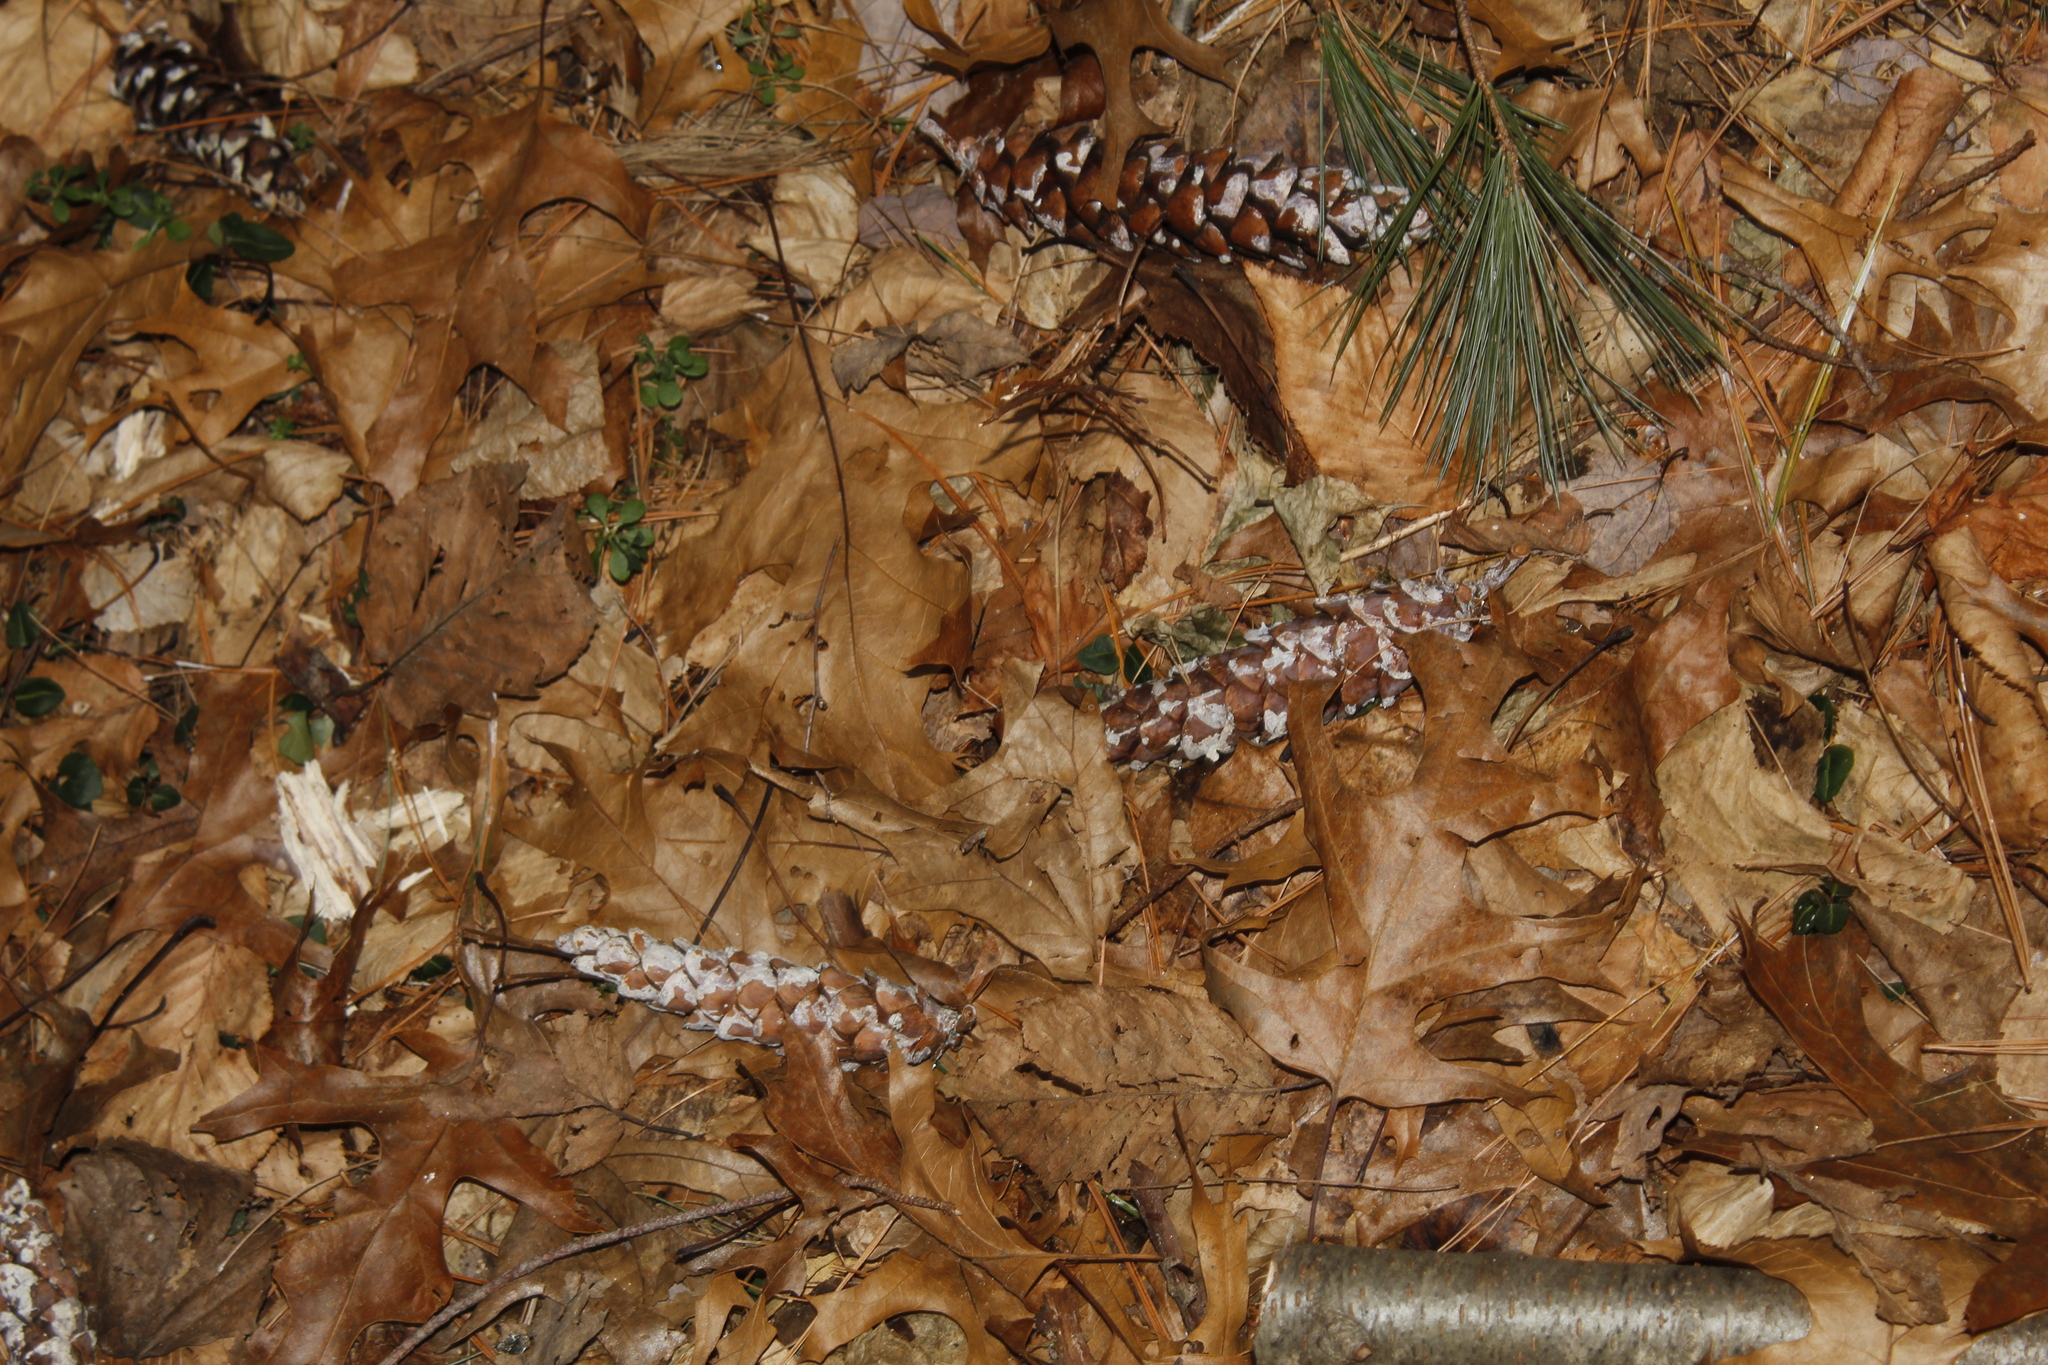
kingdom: Plantae
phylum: Tracheophyta
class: Pinopsida
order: Pinales
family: Pinaceae
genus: Pinus
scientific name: Pinus strobus
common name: Weymouth pine
